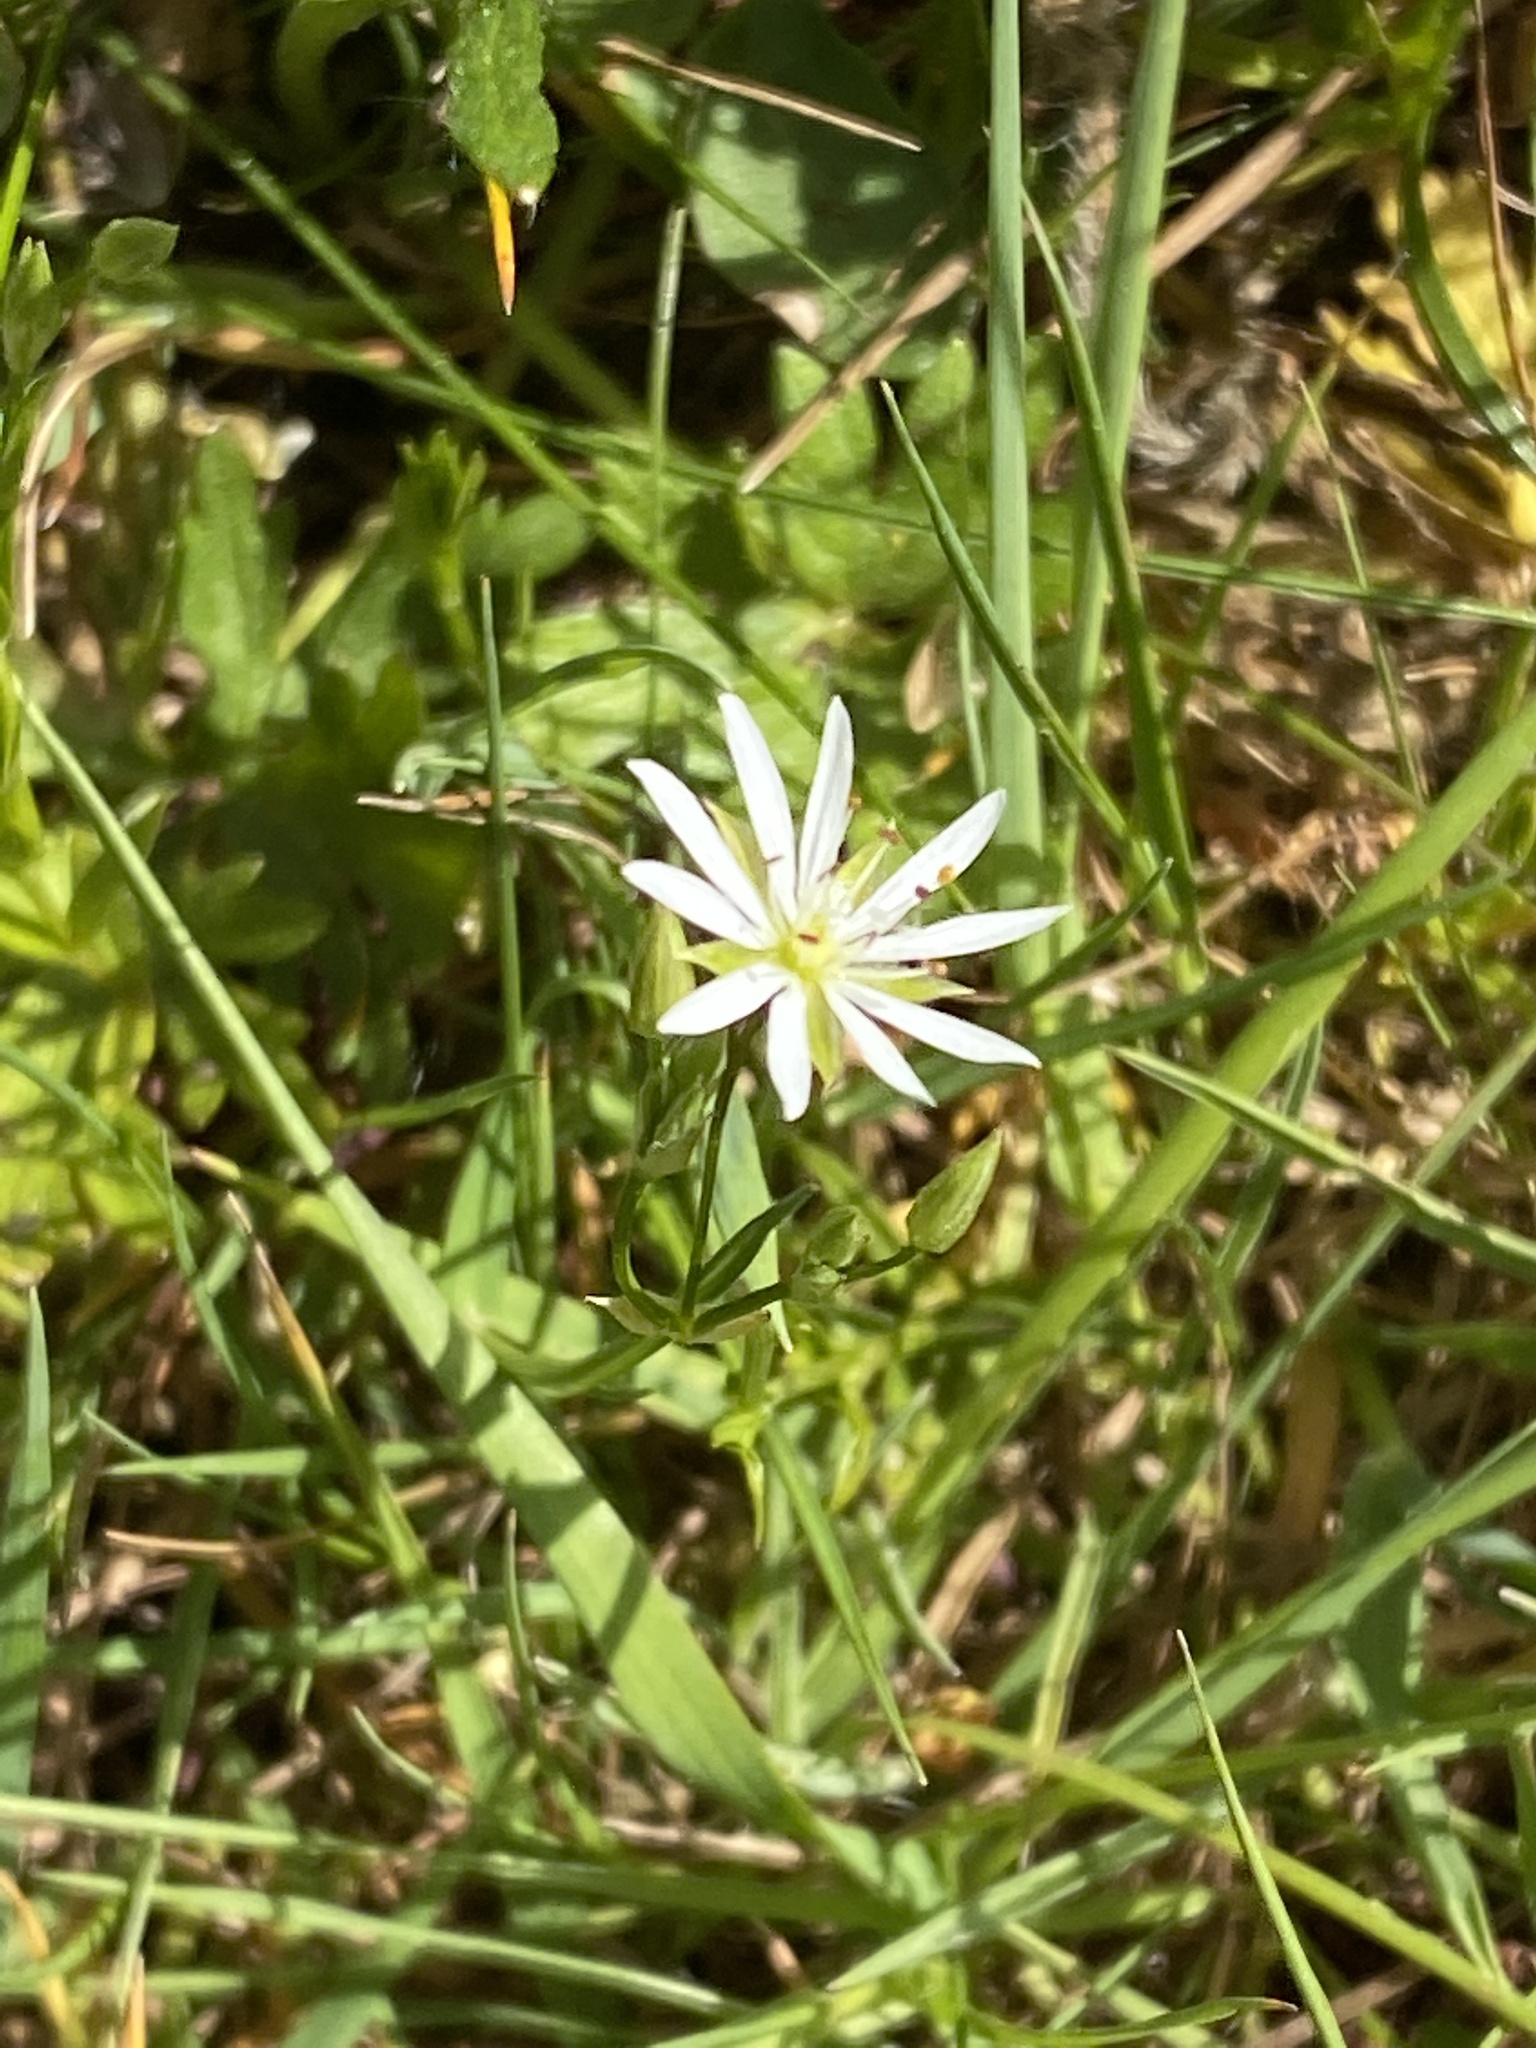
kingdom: Plantae
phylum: Tracheophyta
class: Magnoliopsida
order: Caryophyllales
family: Caryophyllaceae
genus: Stellaria
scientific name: Stellaria graminea
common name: Grass-like starwort
